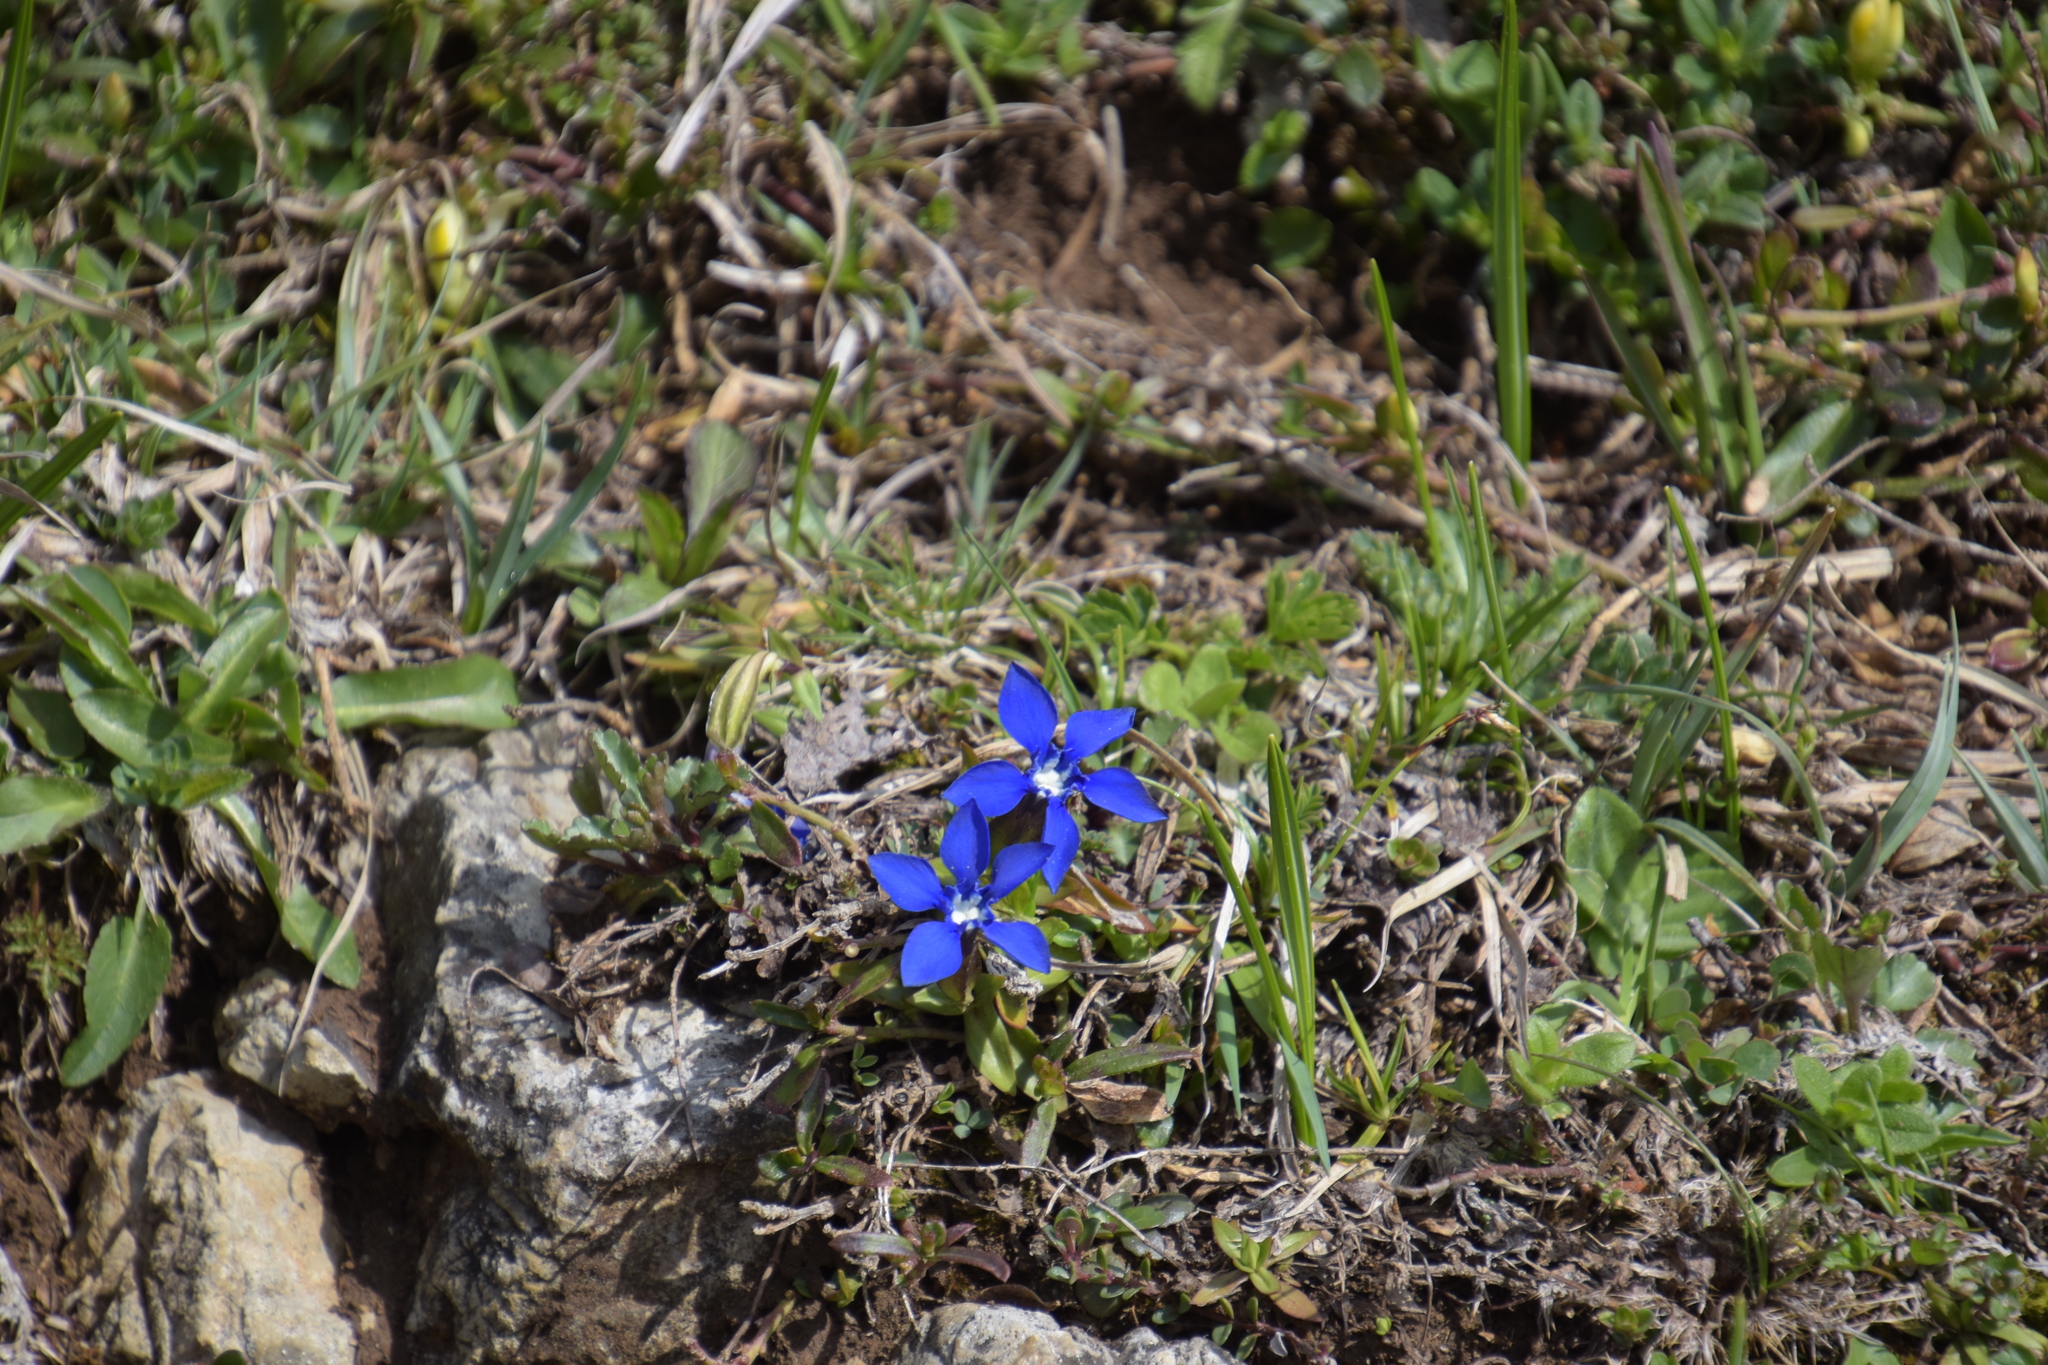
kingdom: Plantae
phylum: Tracheophyta
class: Magnoliopsida
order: Gentianales
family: Gentianaceae
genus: Gentiana
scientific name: Gentiana verna
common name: Spring gentian
